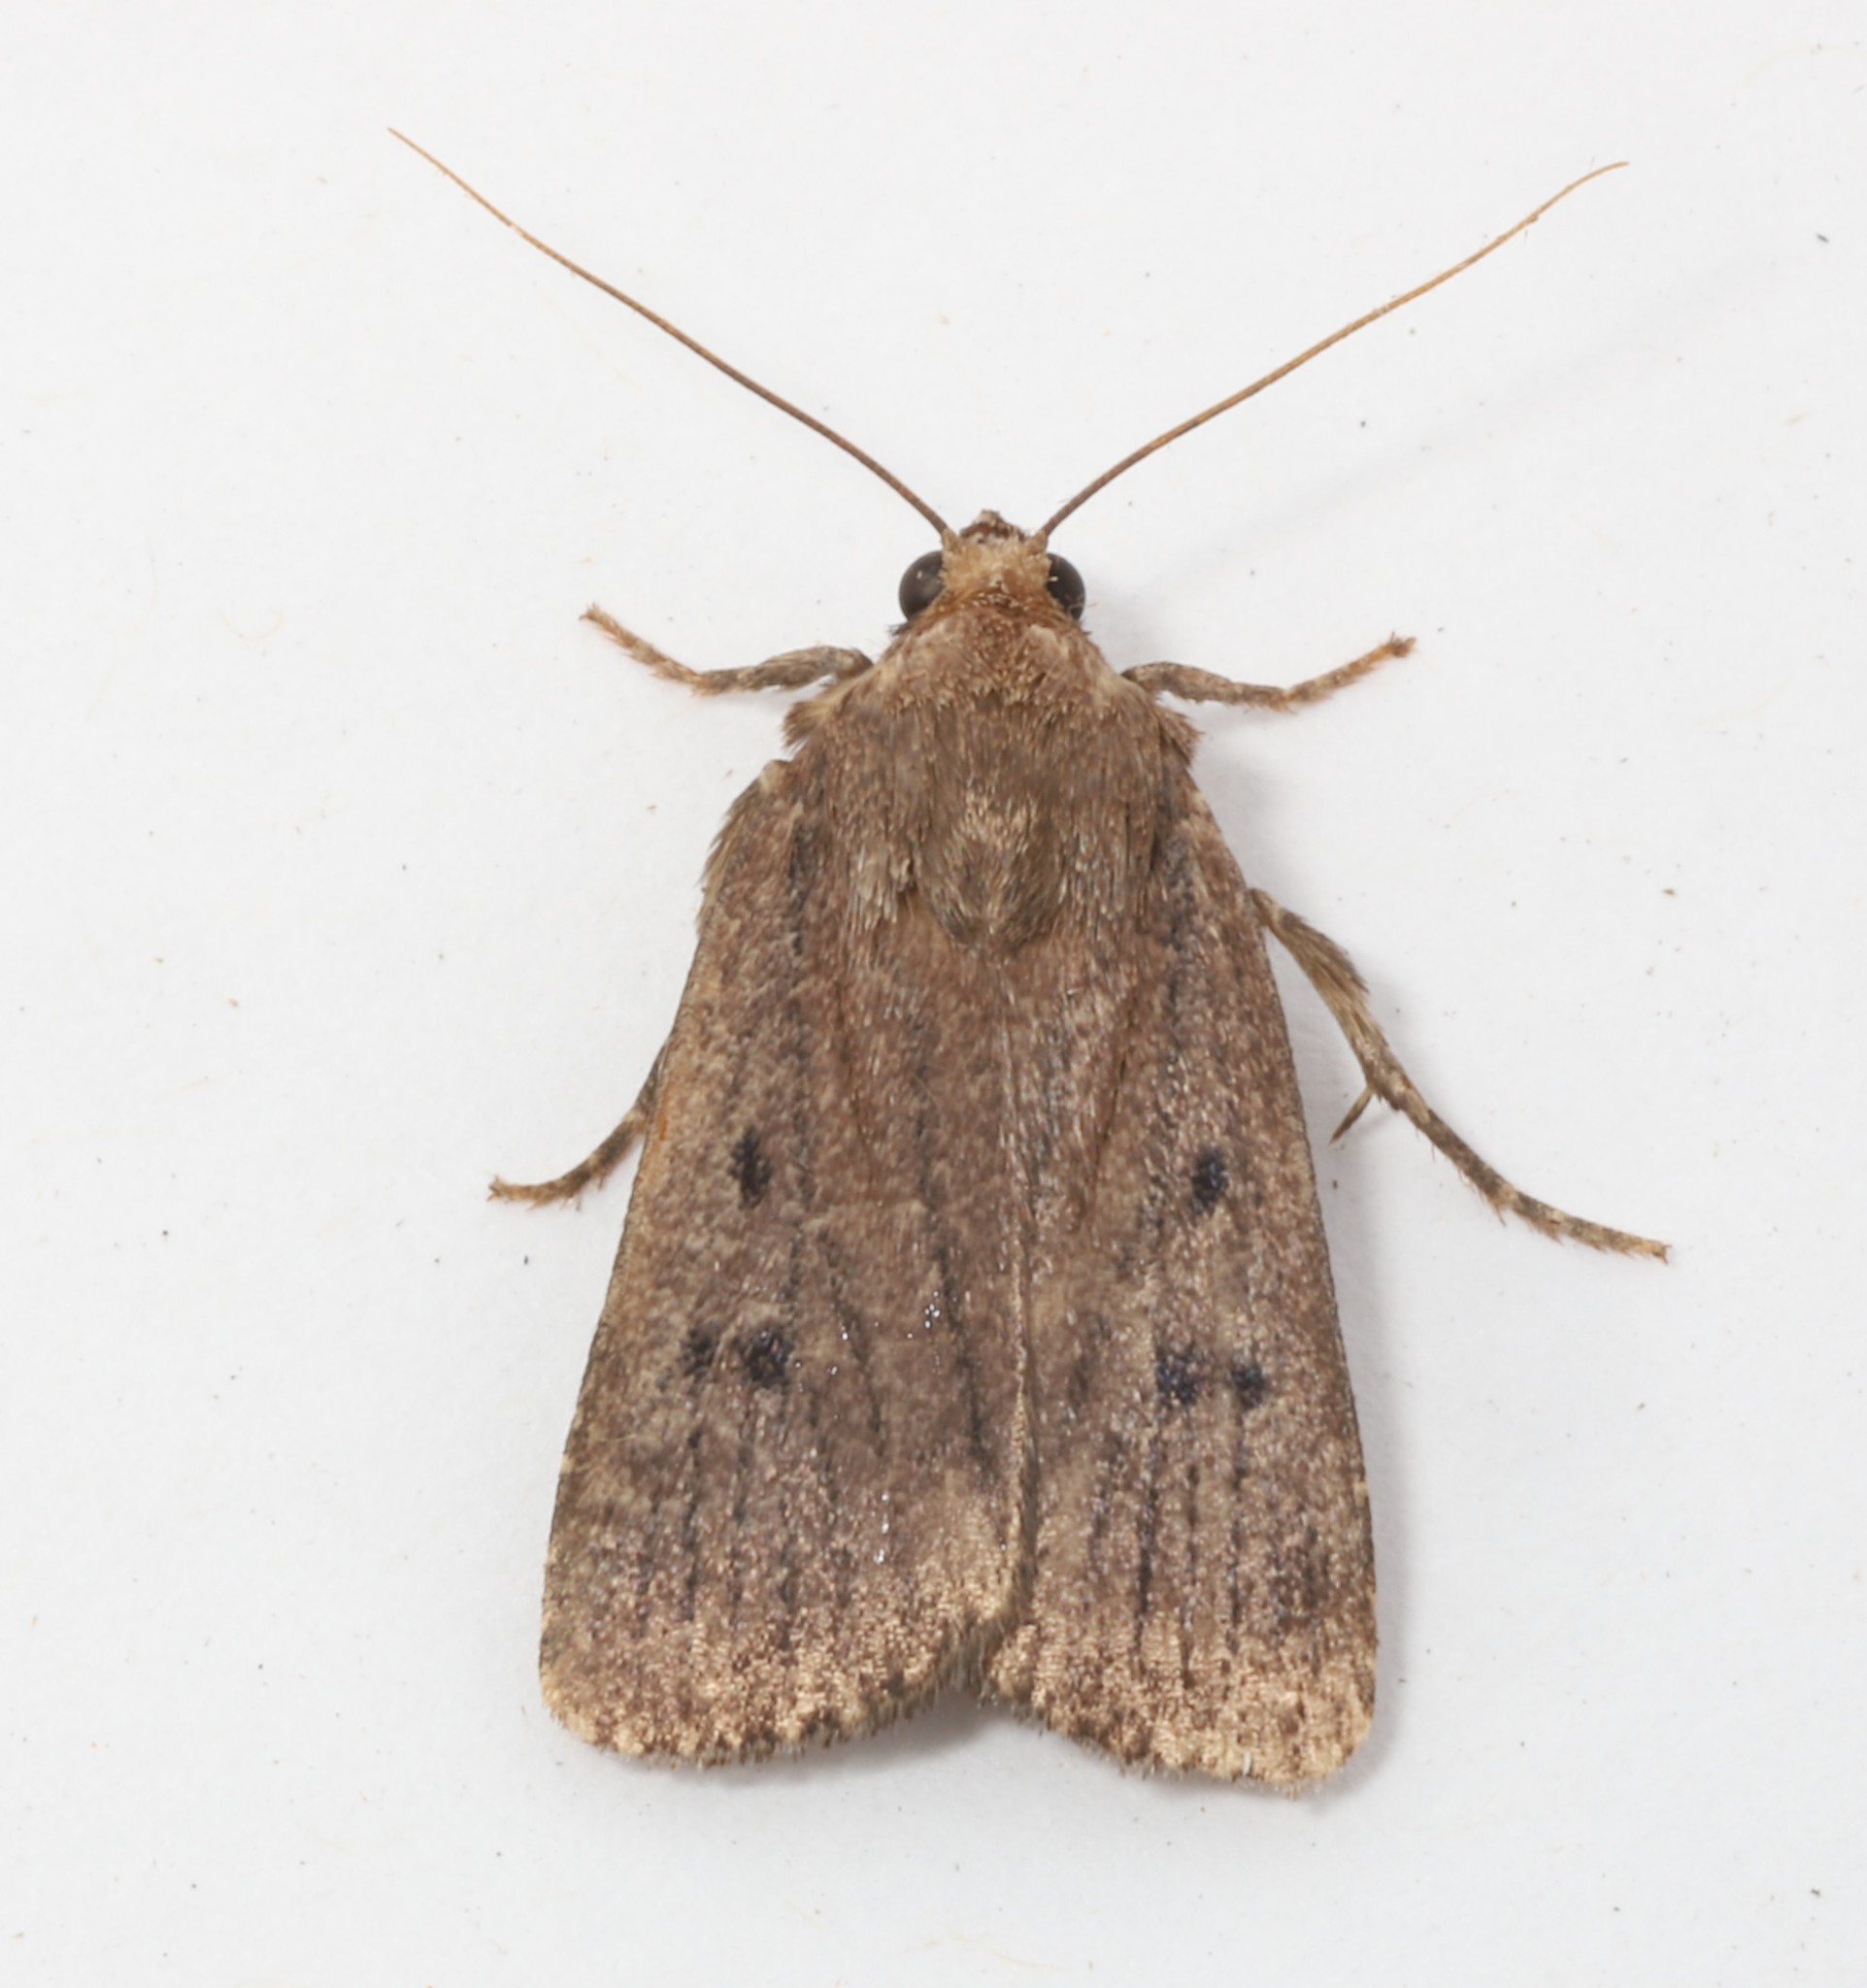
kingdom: Animalia
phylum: Arthropoda
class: Insecta
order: Lepidoptera
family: Noctuidae
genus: Amphipyra
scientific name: Amphipyra tragopoginis
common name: Mouse moth
